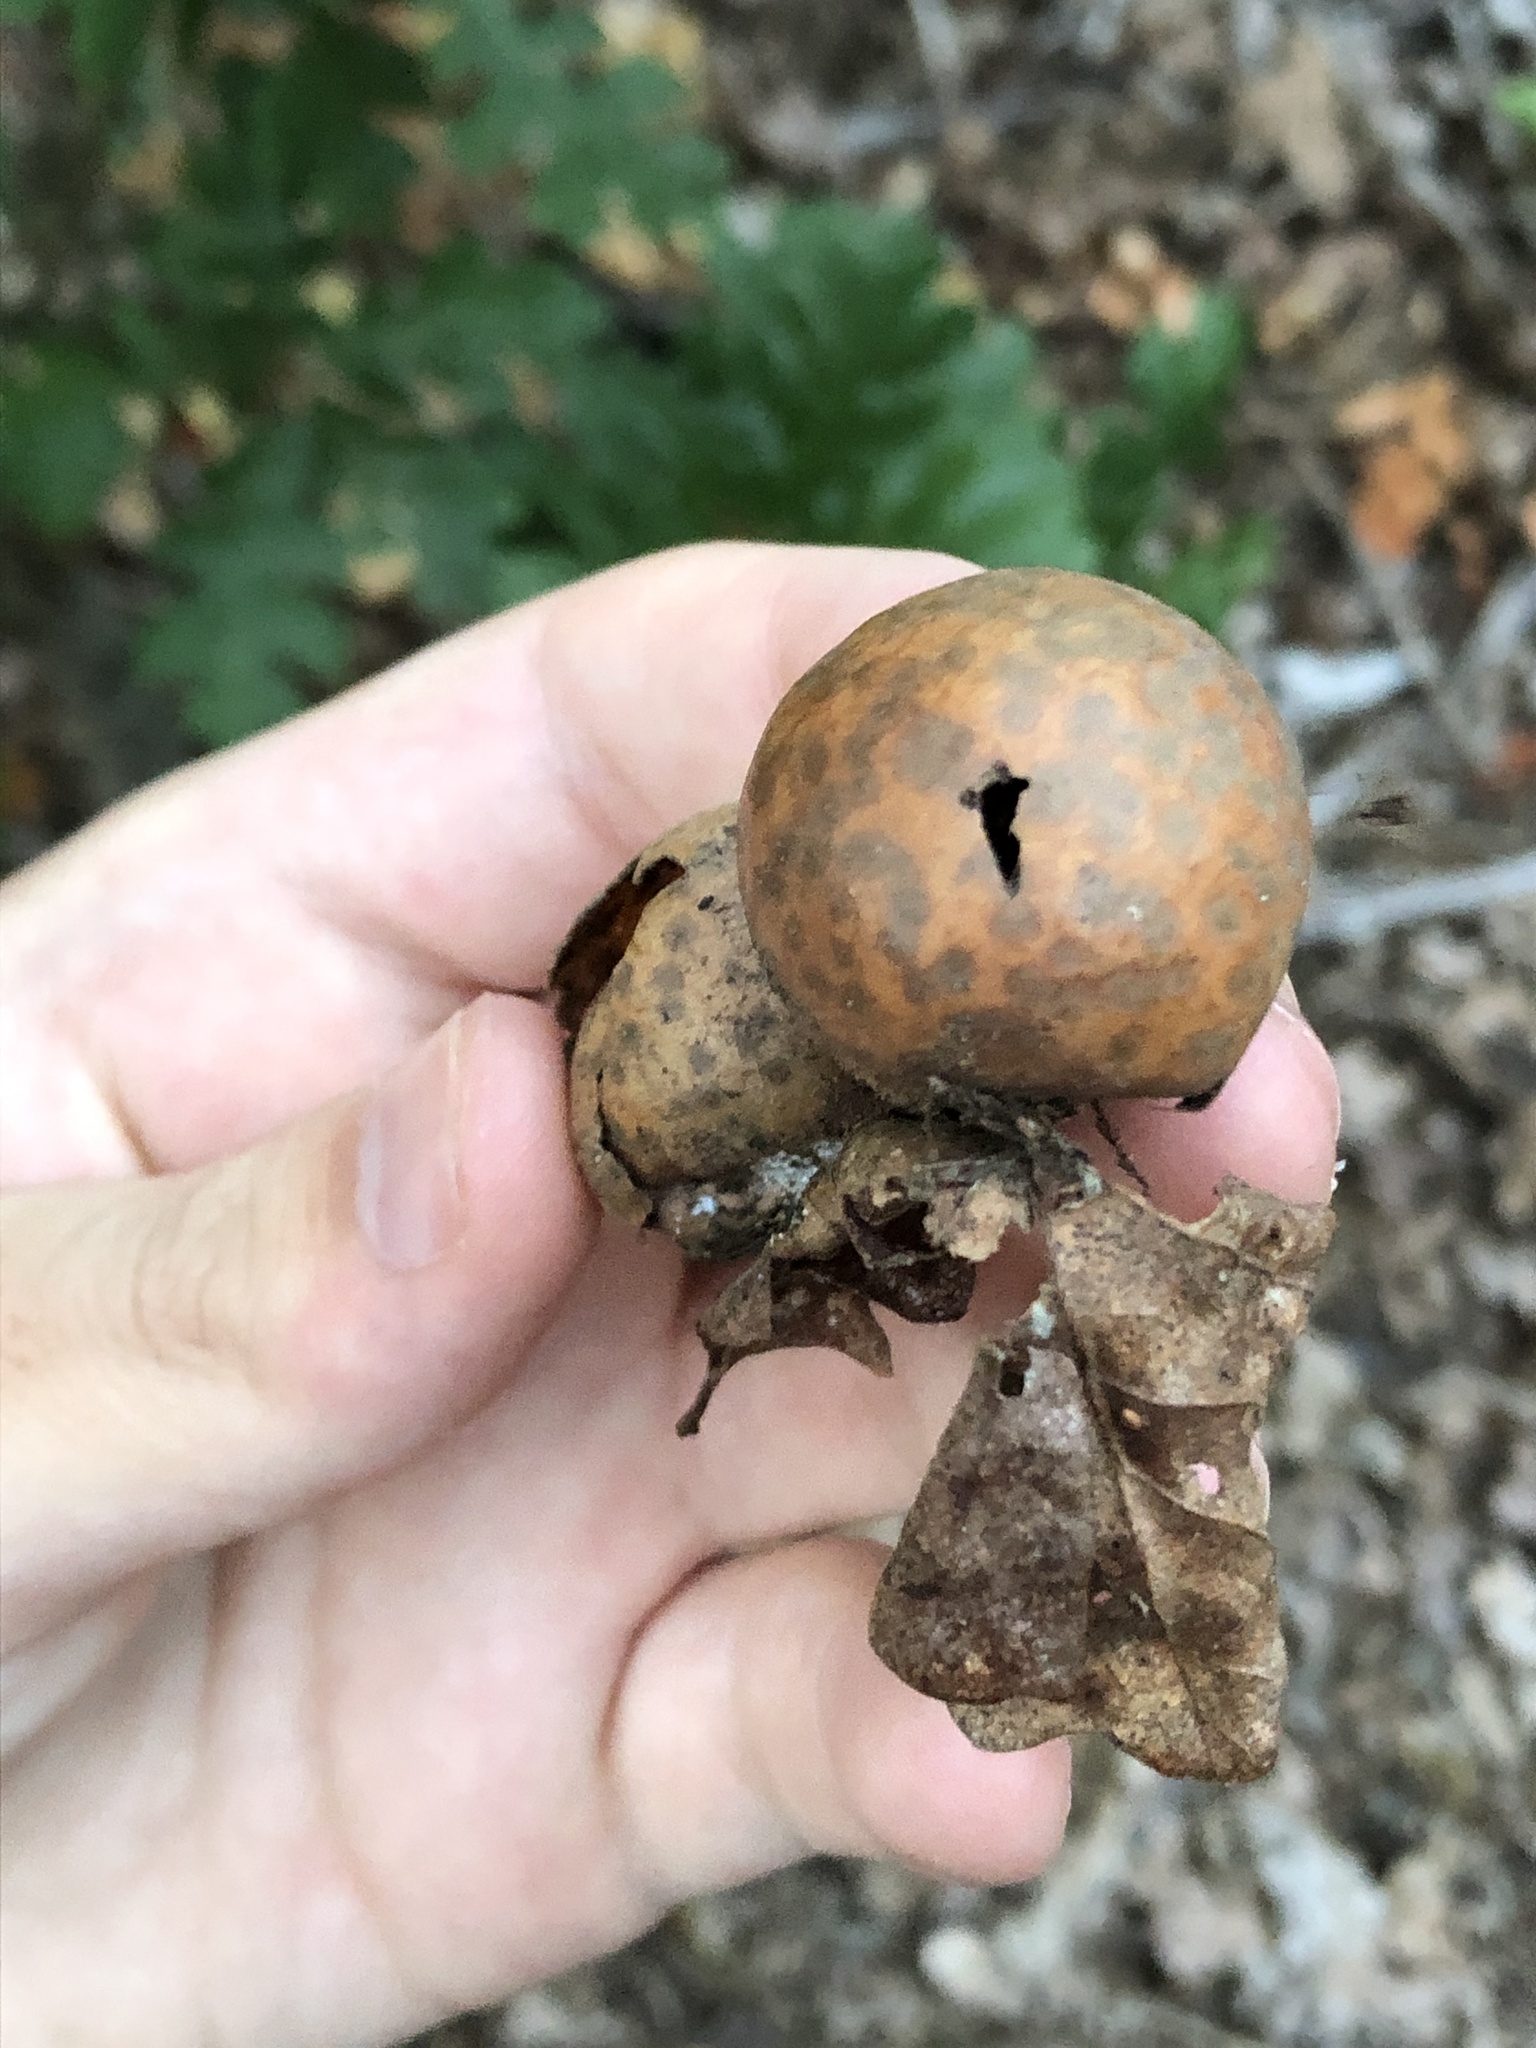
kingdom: Animalia
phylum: Arthropoda
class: Insecta
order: Hymenoptera
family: Cynipidae
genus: Cynips
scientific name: Cynips
